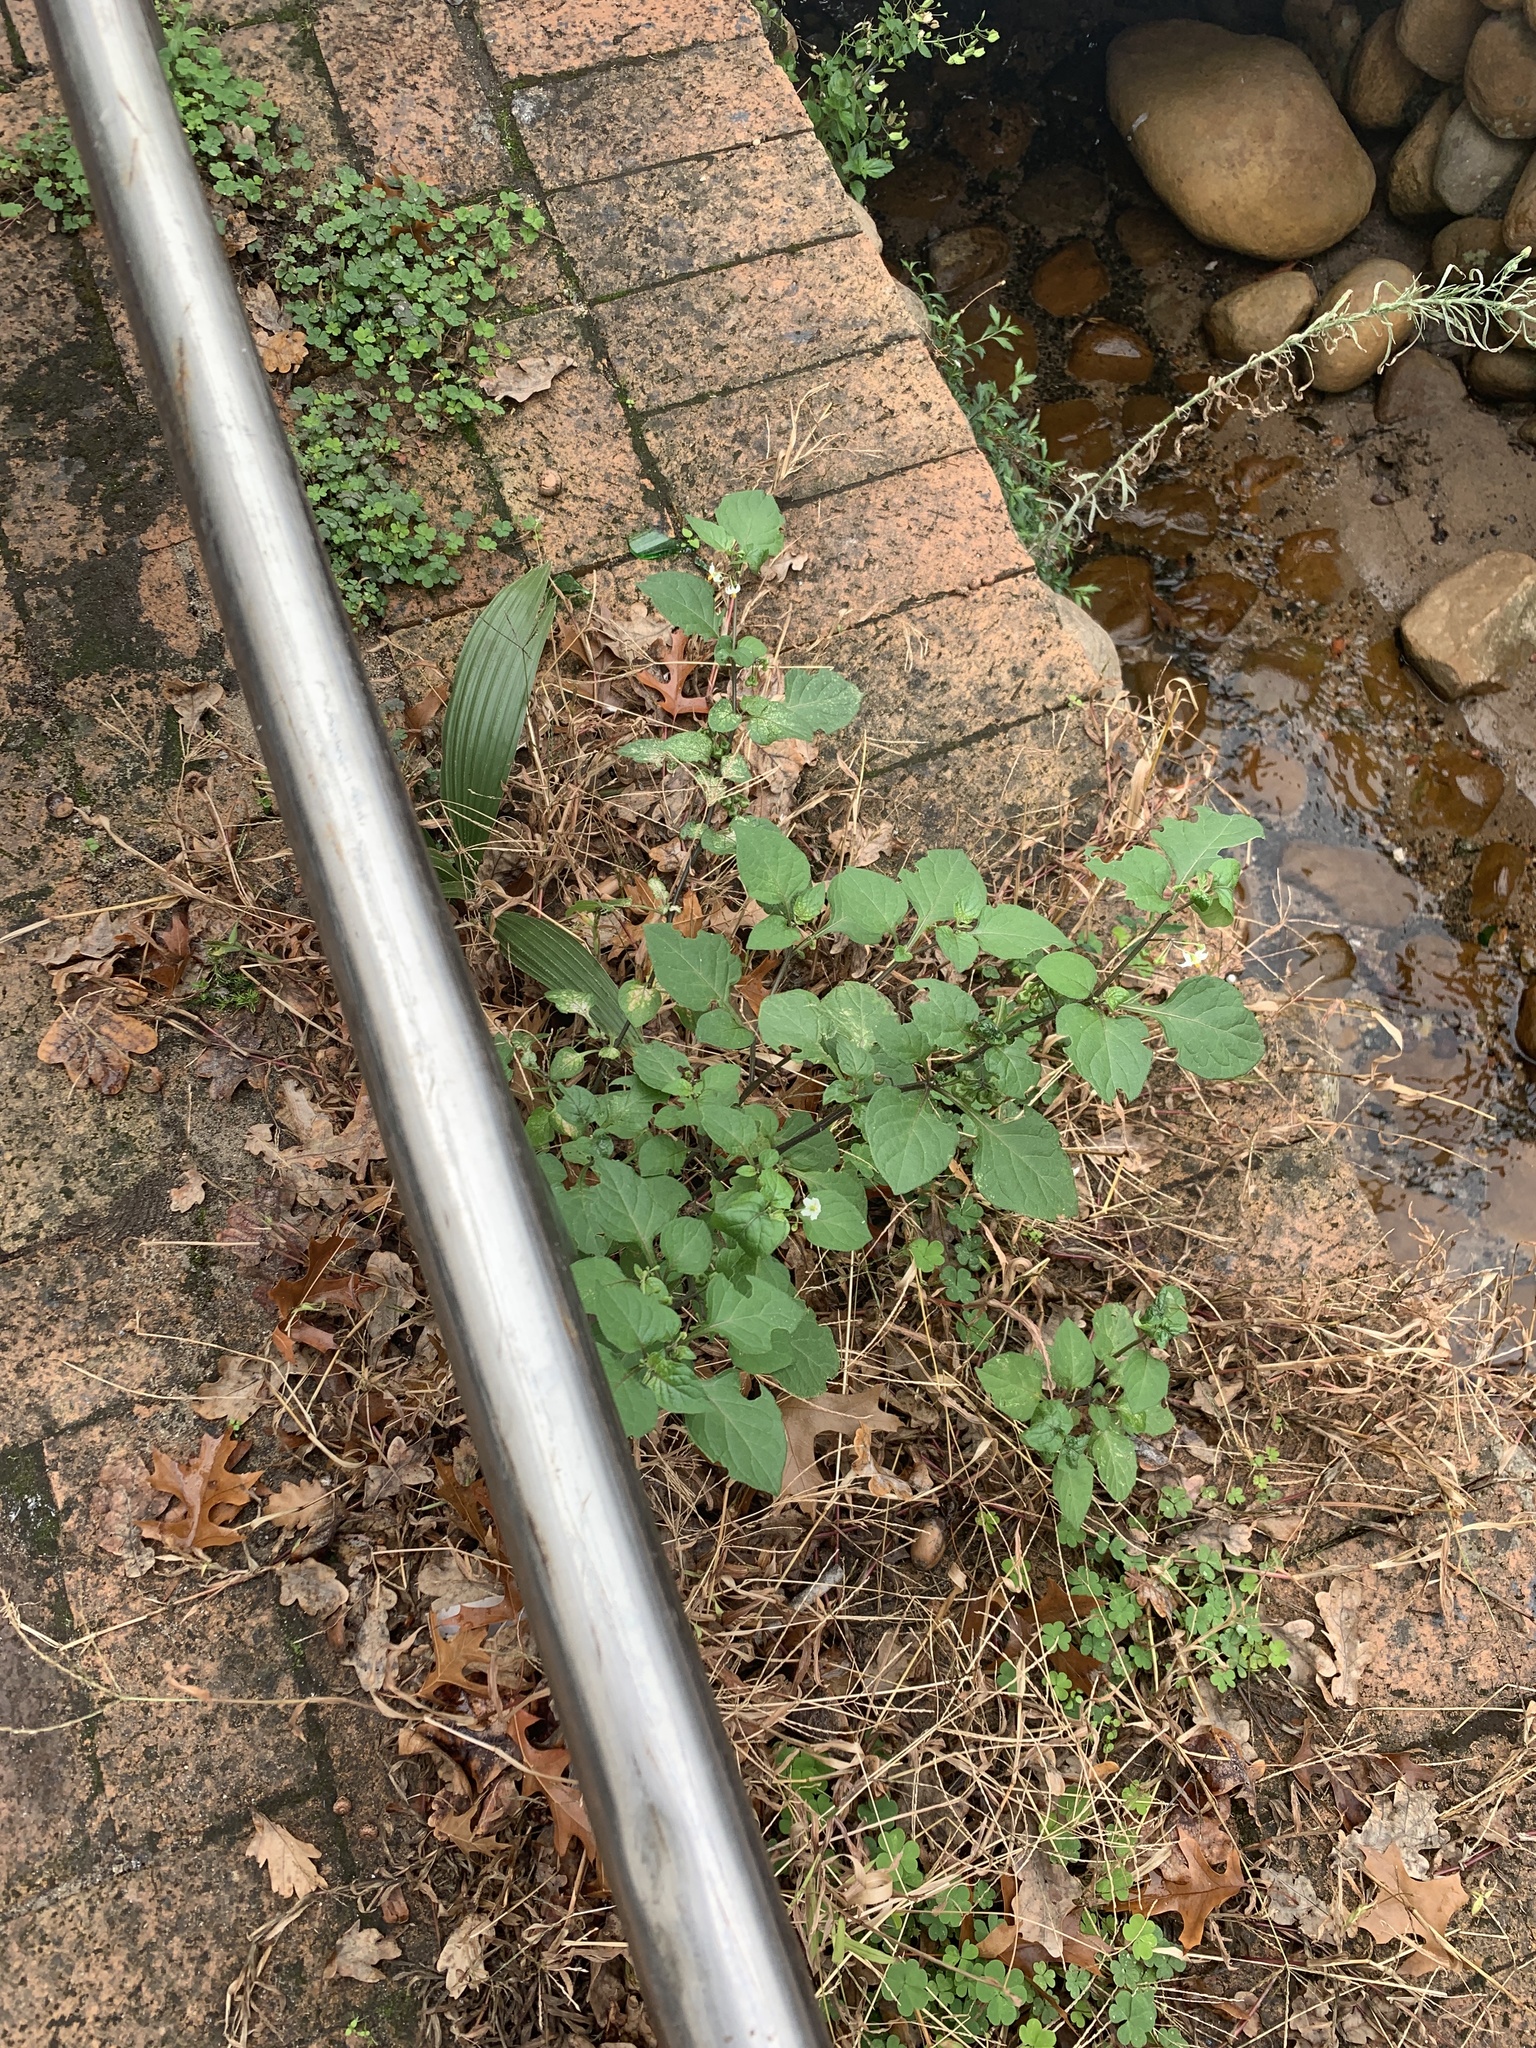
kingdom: Plantae
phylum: Tracheophyta
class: Magnoliopsida
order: Solanales
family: Solanaceae
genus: Solanum
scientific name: Solanum nigrum
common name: Black nightshade
